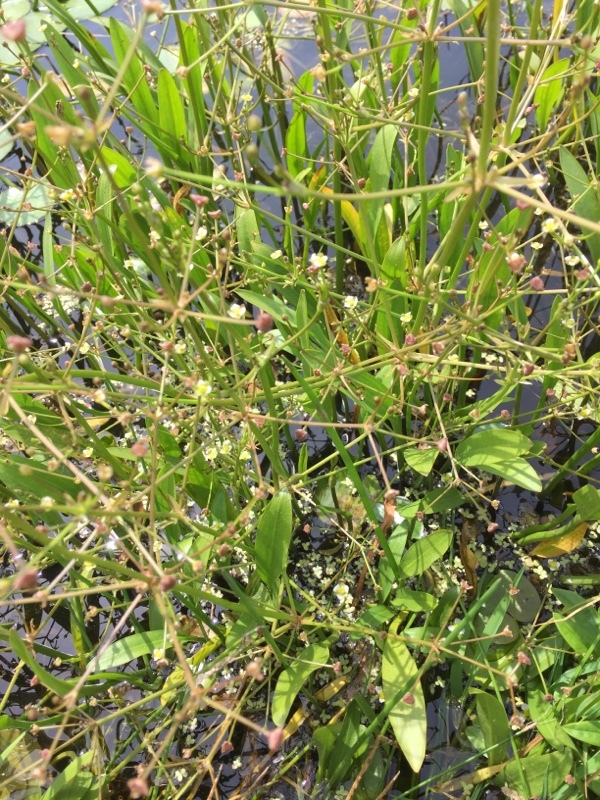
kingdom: Plantae
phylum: Tracheophyta
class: Liliopsida
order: Alismatales
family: Alismataceae
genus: Alisma
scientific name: Alisma gramineum
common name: Ribbon-leaved water-plantain
